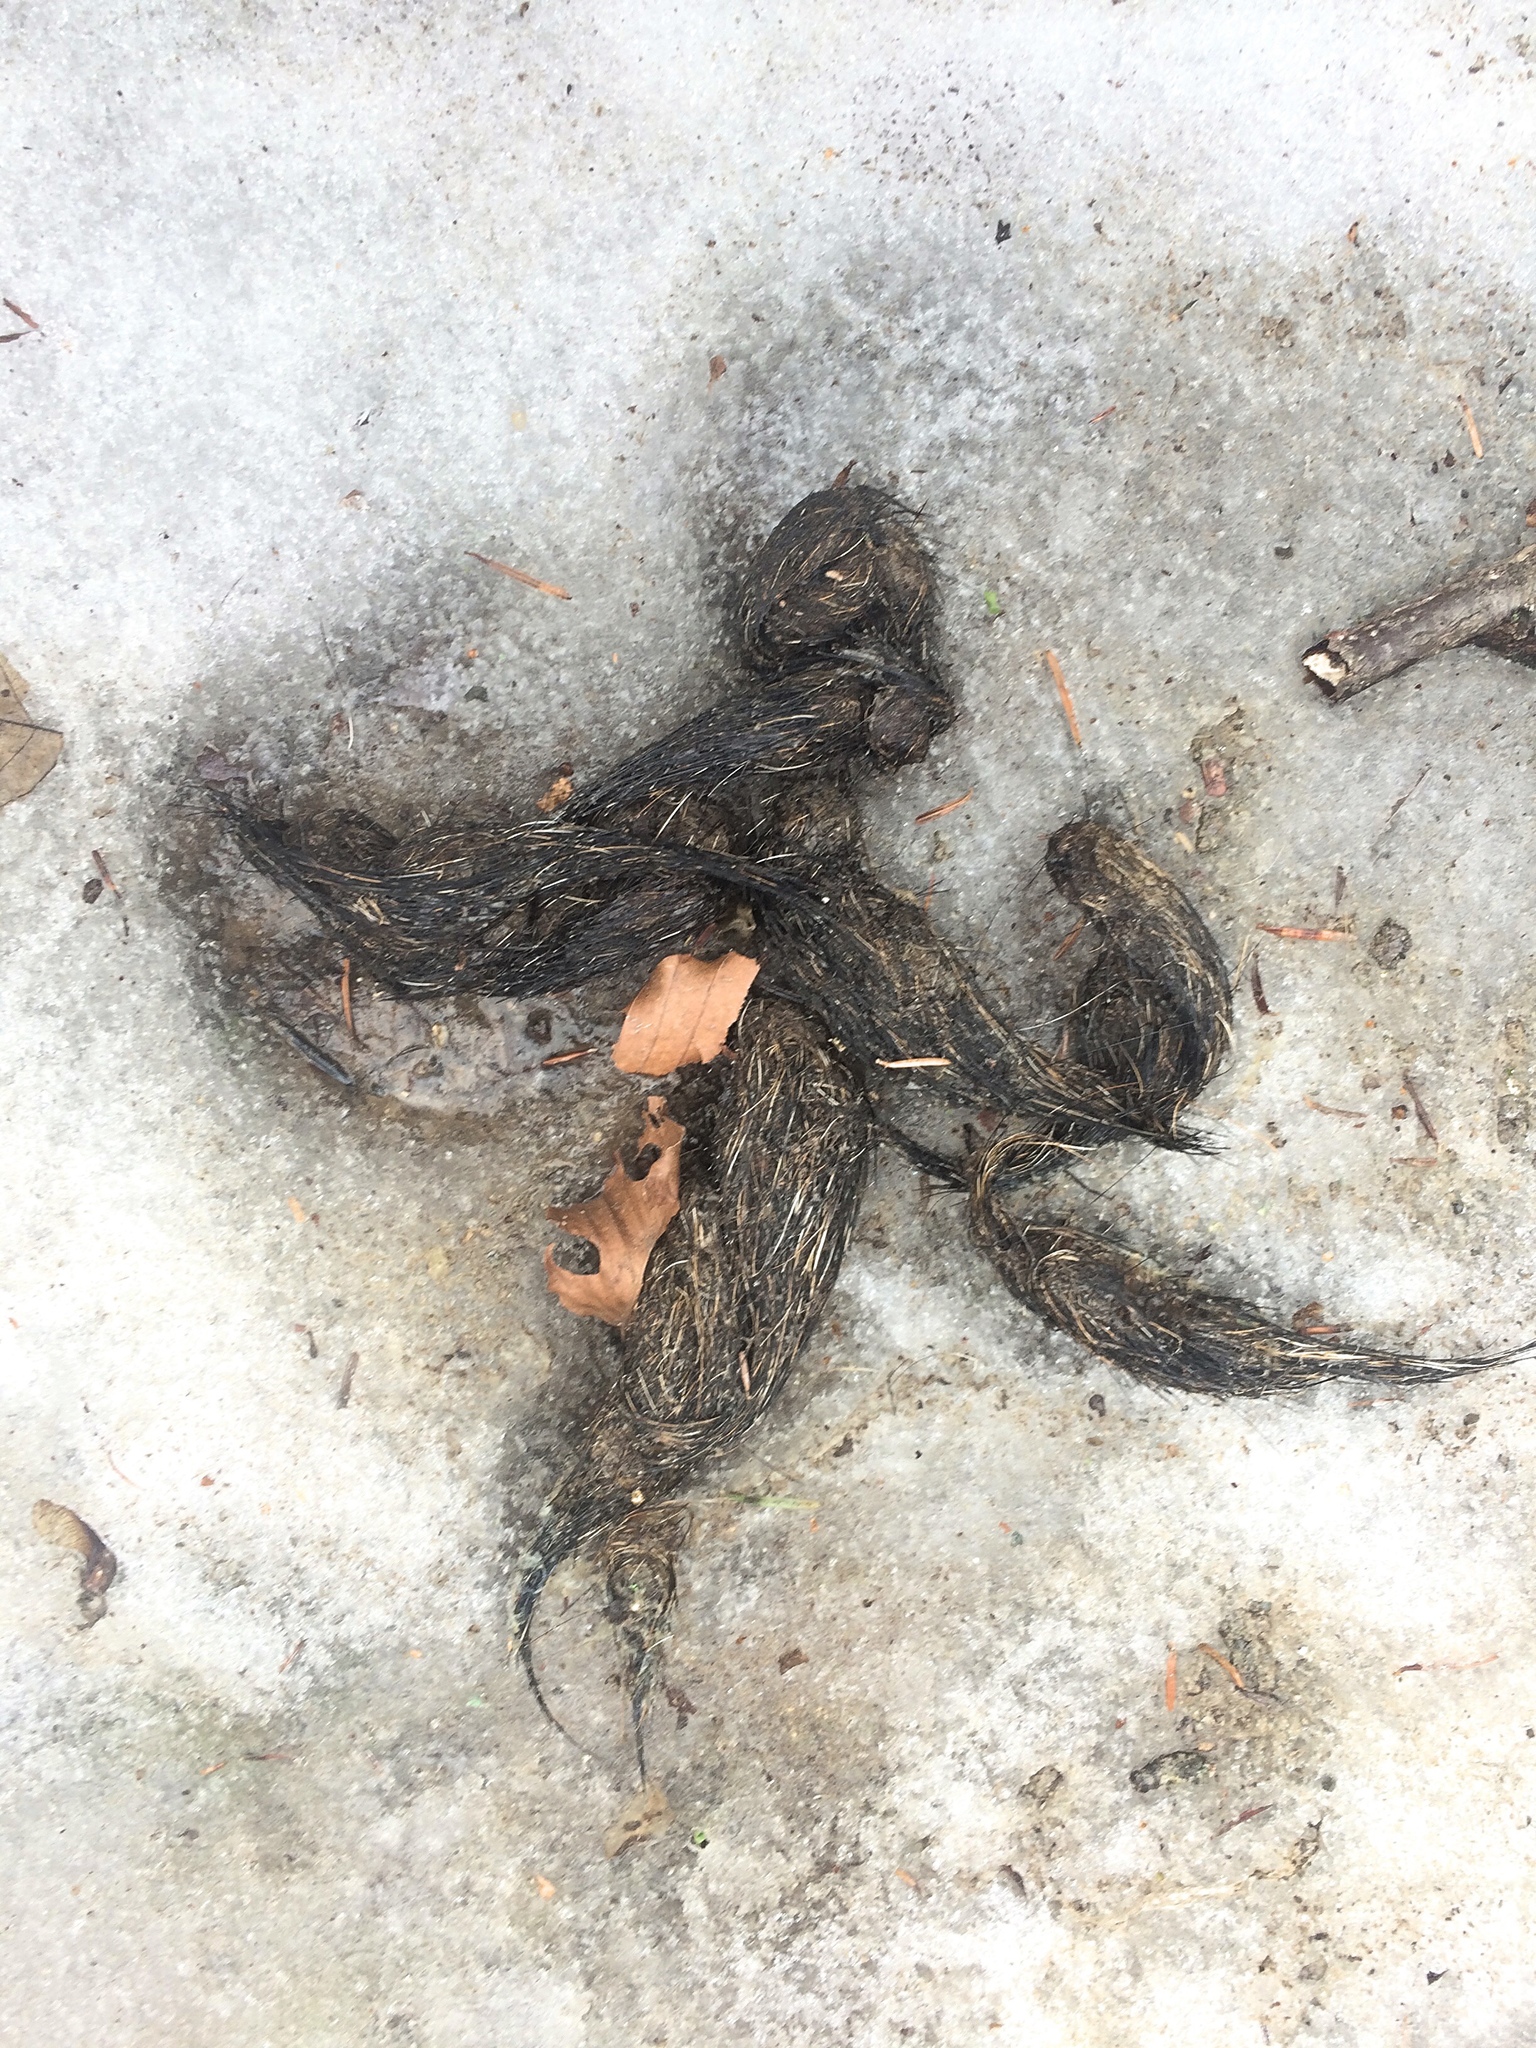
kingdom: Animalia
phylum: Chordata
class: Mammalia
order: Carnivora
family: Canidae
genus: Canis
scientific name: Canis lupus
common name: Gray wolf
